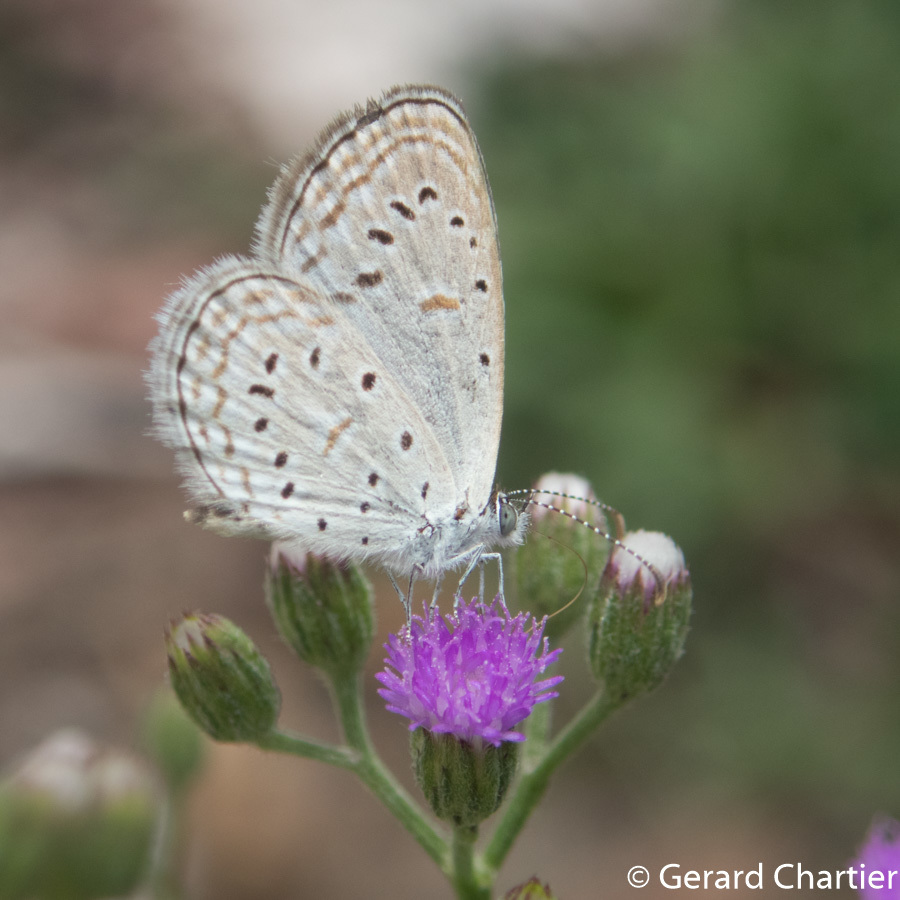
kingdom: Animalia
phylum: Arthropoda
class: Insecta
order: Lepidoptera
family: Lycaenidae
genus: Zizula
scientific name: Zizula hylax
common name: Gaika blue
